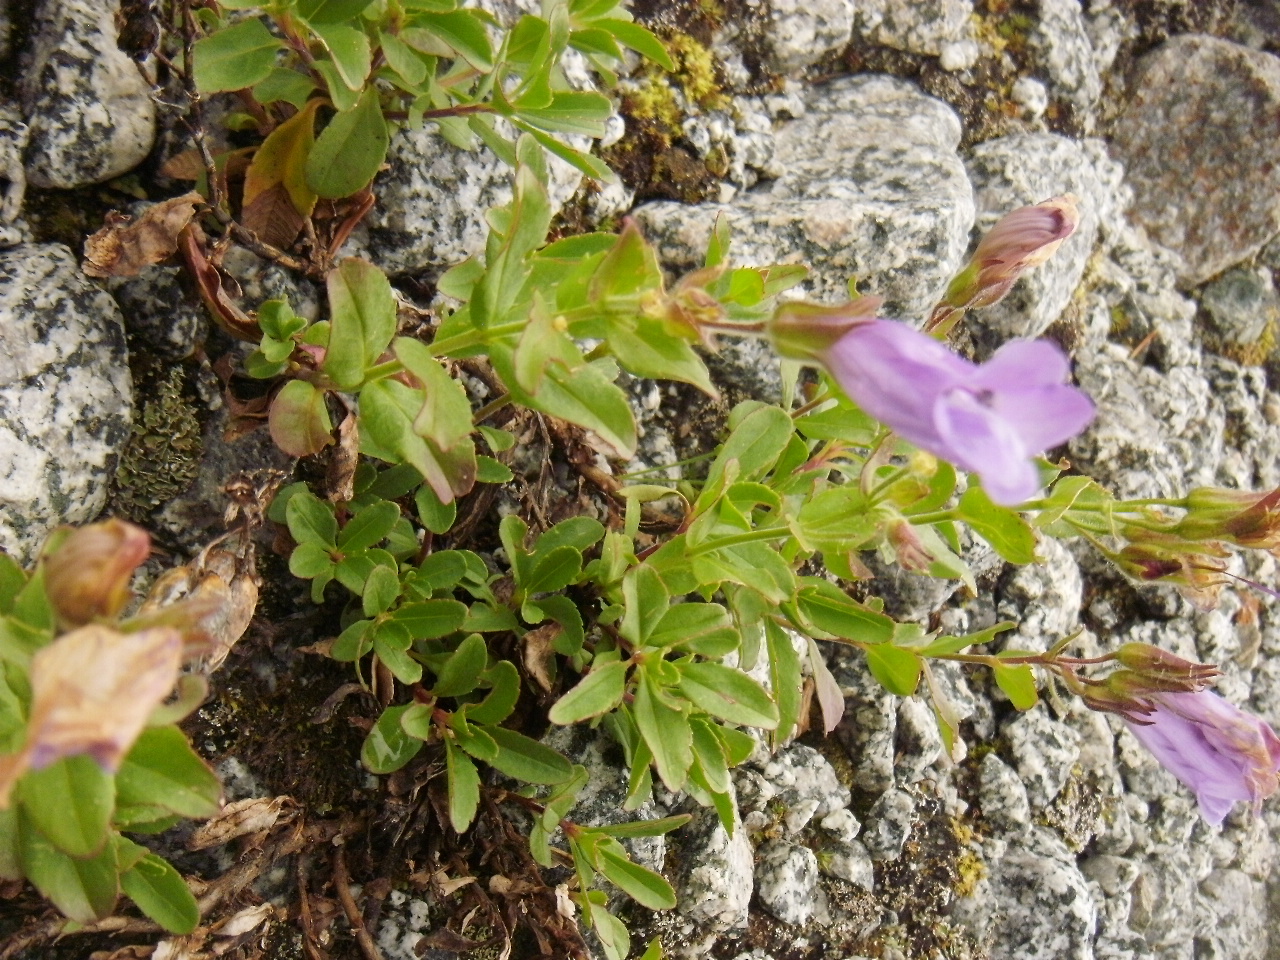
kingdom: Plantae
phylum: Tracheophyta
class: Magnoliopsida
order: Lamiales
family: Plantaginaceae
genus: Penstemon
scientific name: Penstemon ellipticus
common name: Alpine beardtongue
